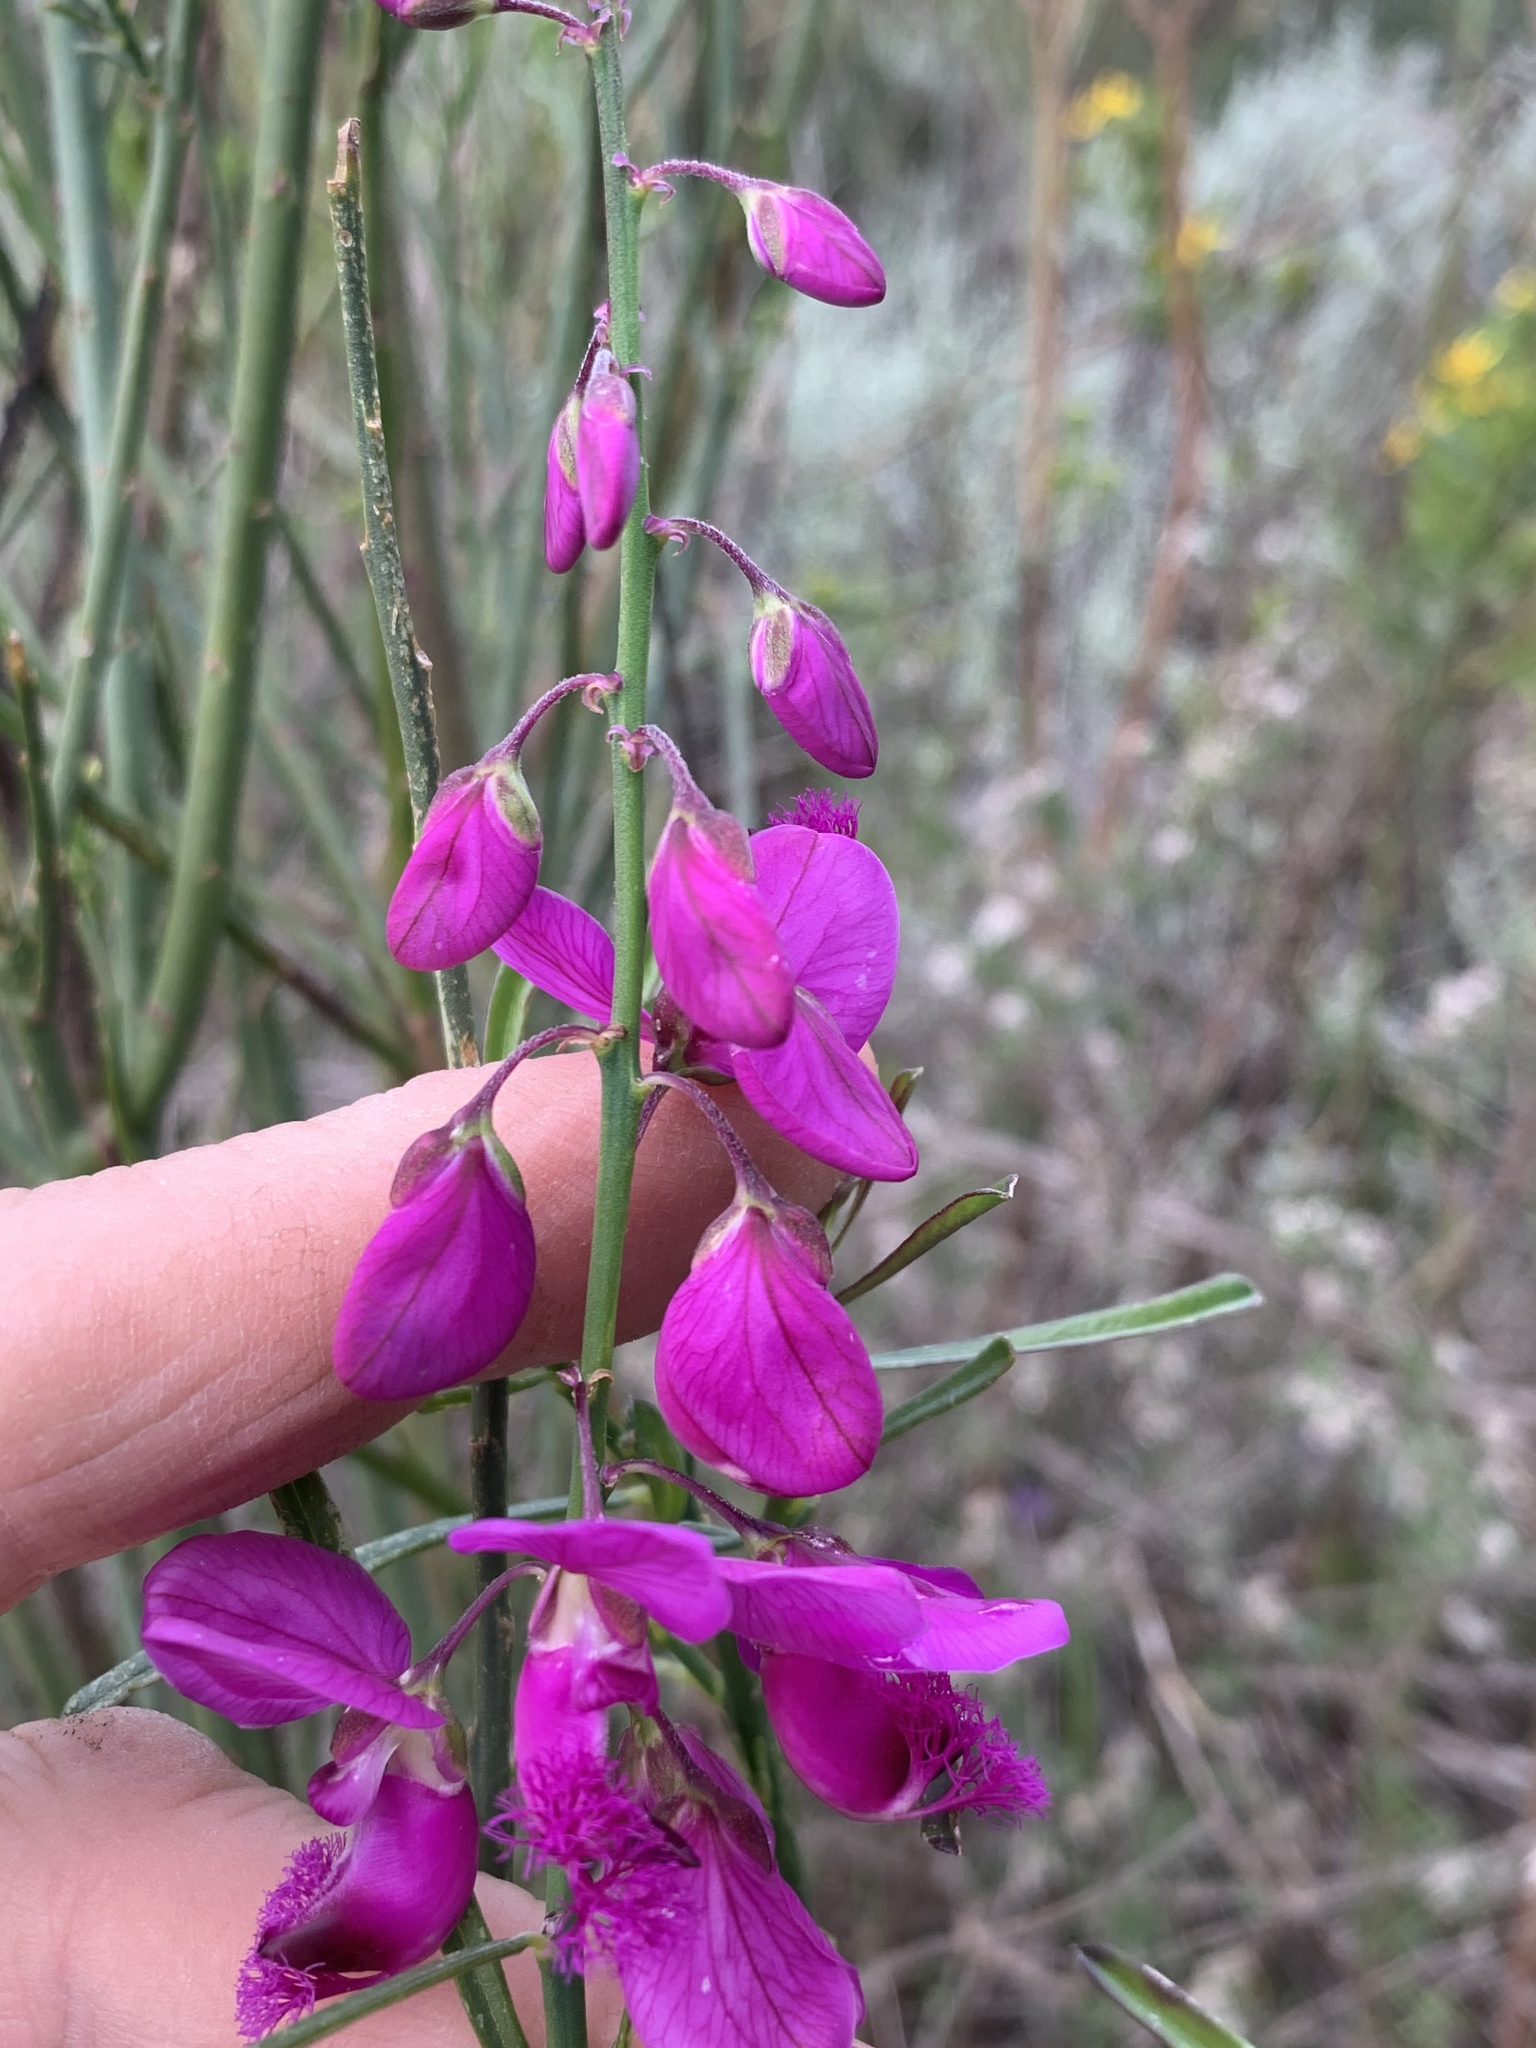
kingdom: Plantae
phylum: Tracheophyta
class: Magnoliopsida
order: Fabales
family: Polygalaceae
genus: Polygala
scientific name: Polygala virgata
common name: Milkwort
